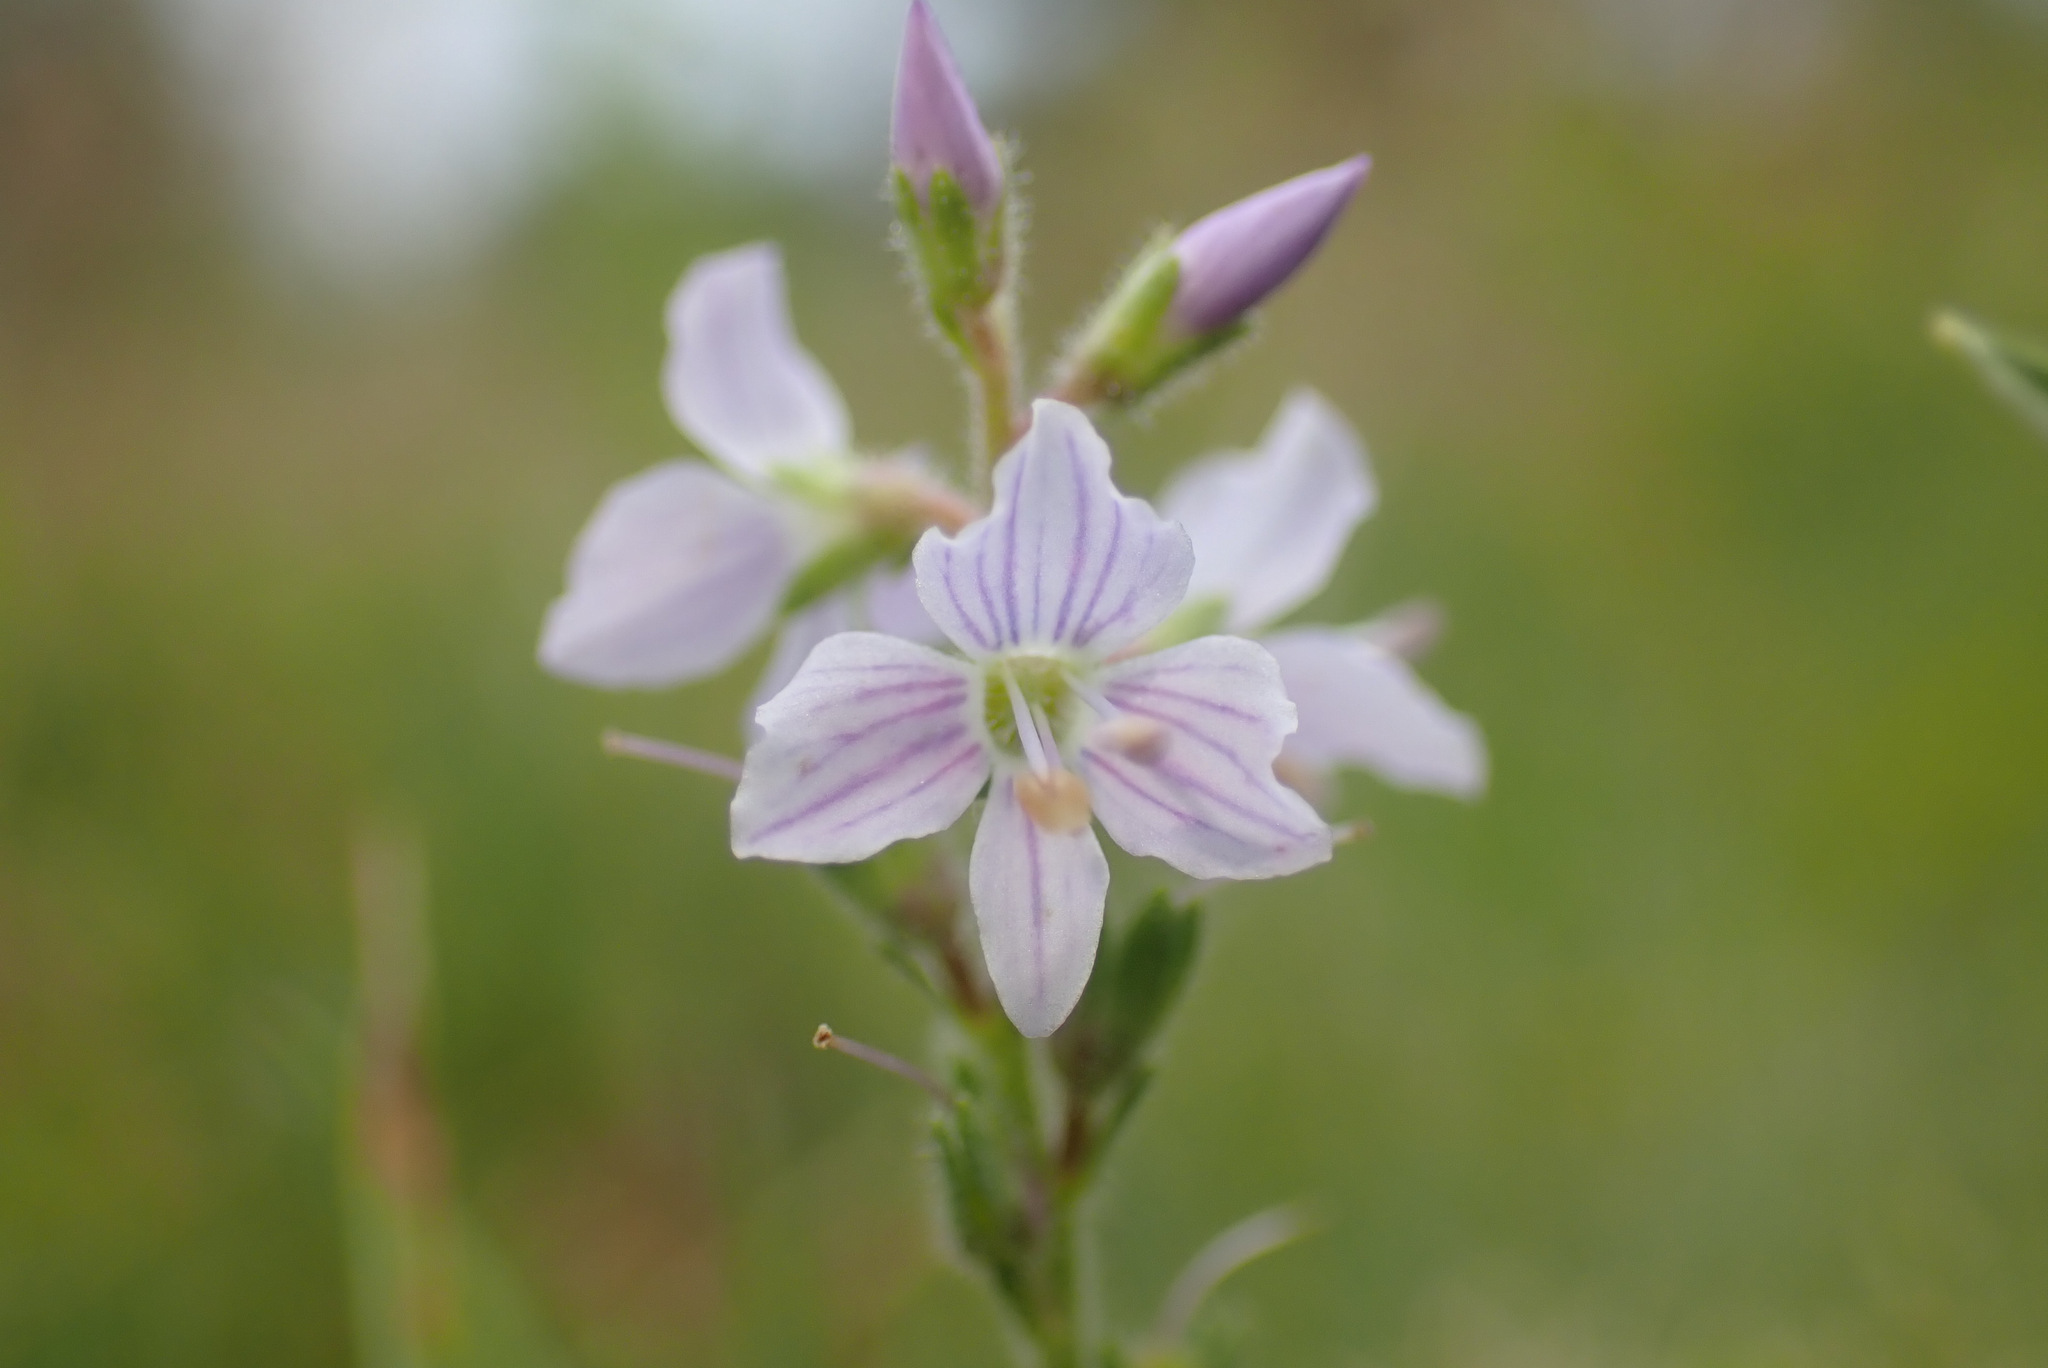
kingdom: Plantae
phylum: Tracheophyta
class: Magnoliopsida
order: Lamiales
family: Plantaginaceae
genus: Veronica
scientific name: Veronica officinalis
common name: Common speedwell
